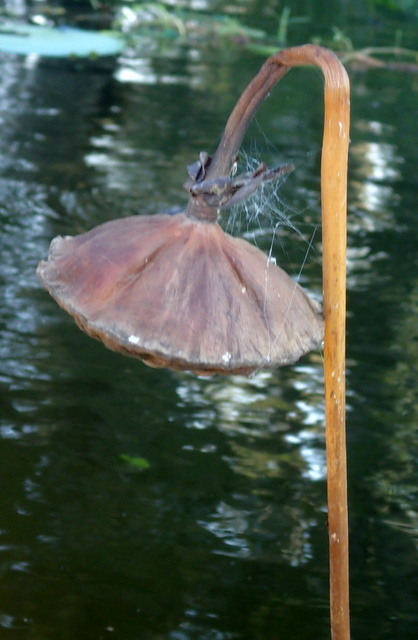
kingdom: Plantae
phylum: Tracheophyta
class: Magnoliopsida
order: Proteales
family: Nelumbonaceae
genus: Nelumbo
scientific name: Nelumbo lutea
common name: American lotus
